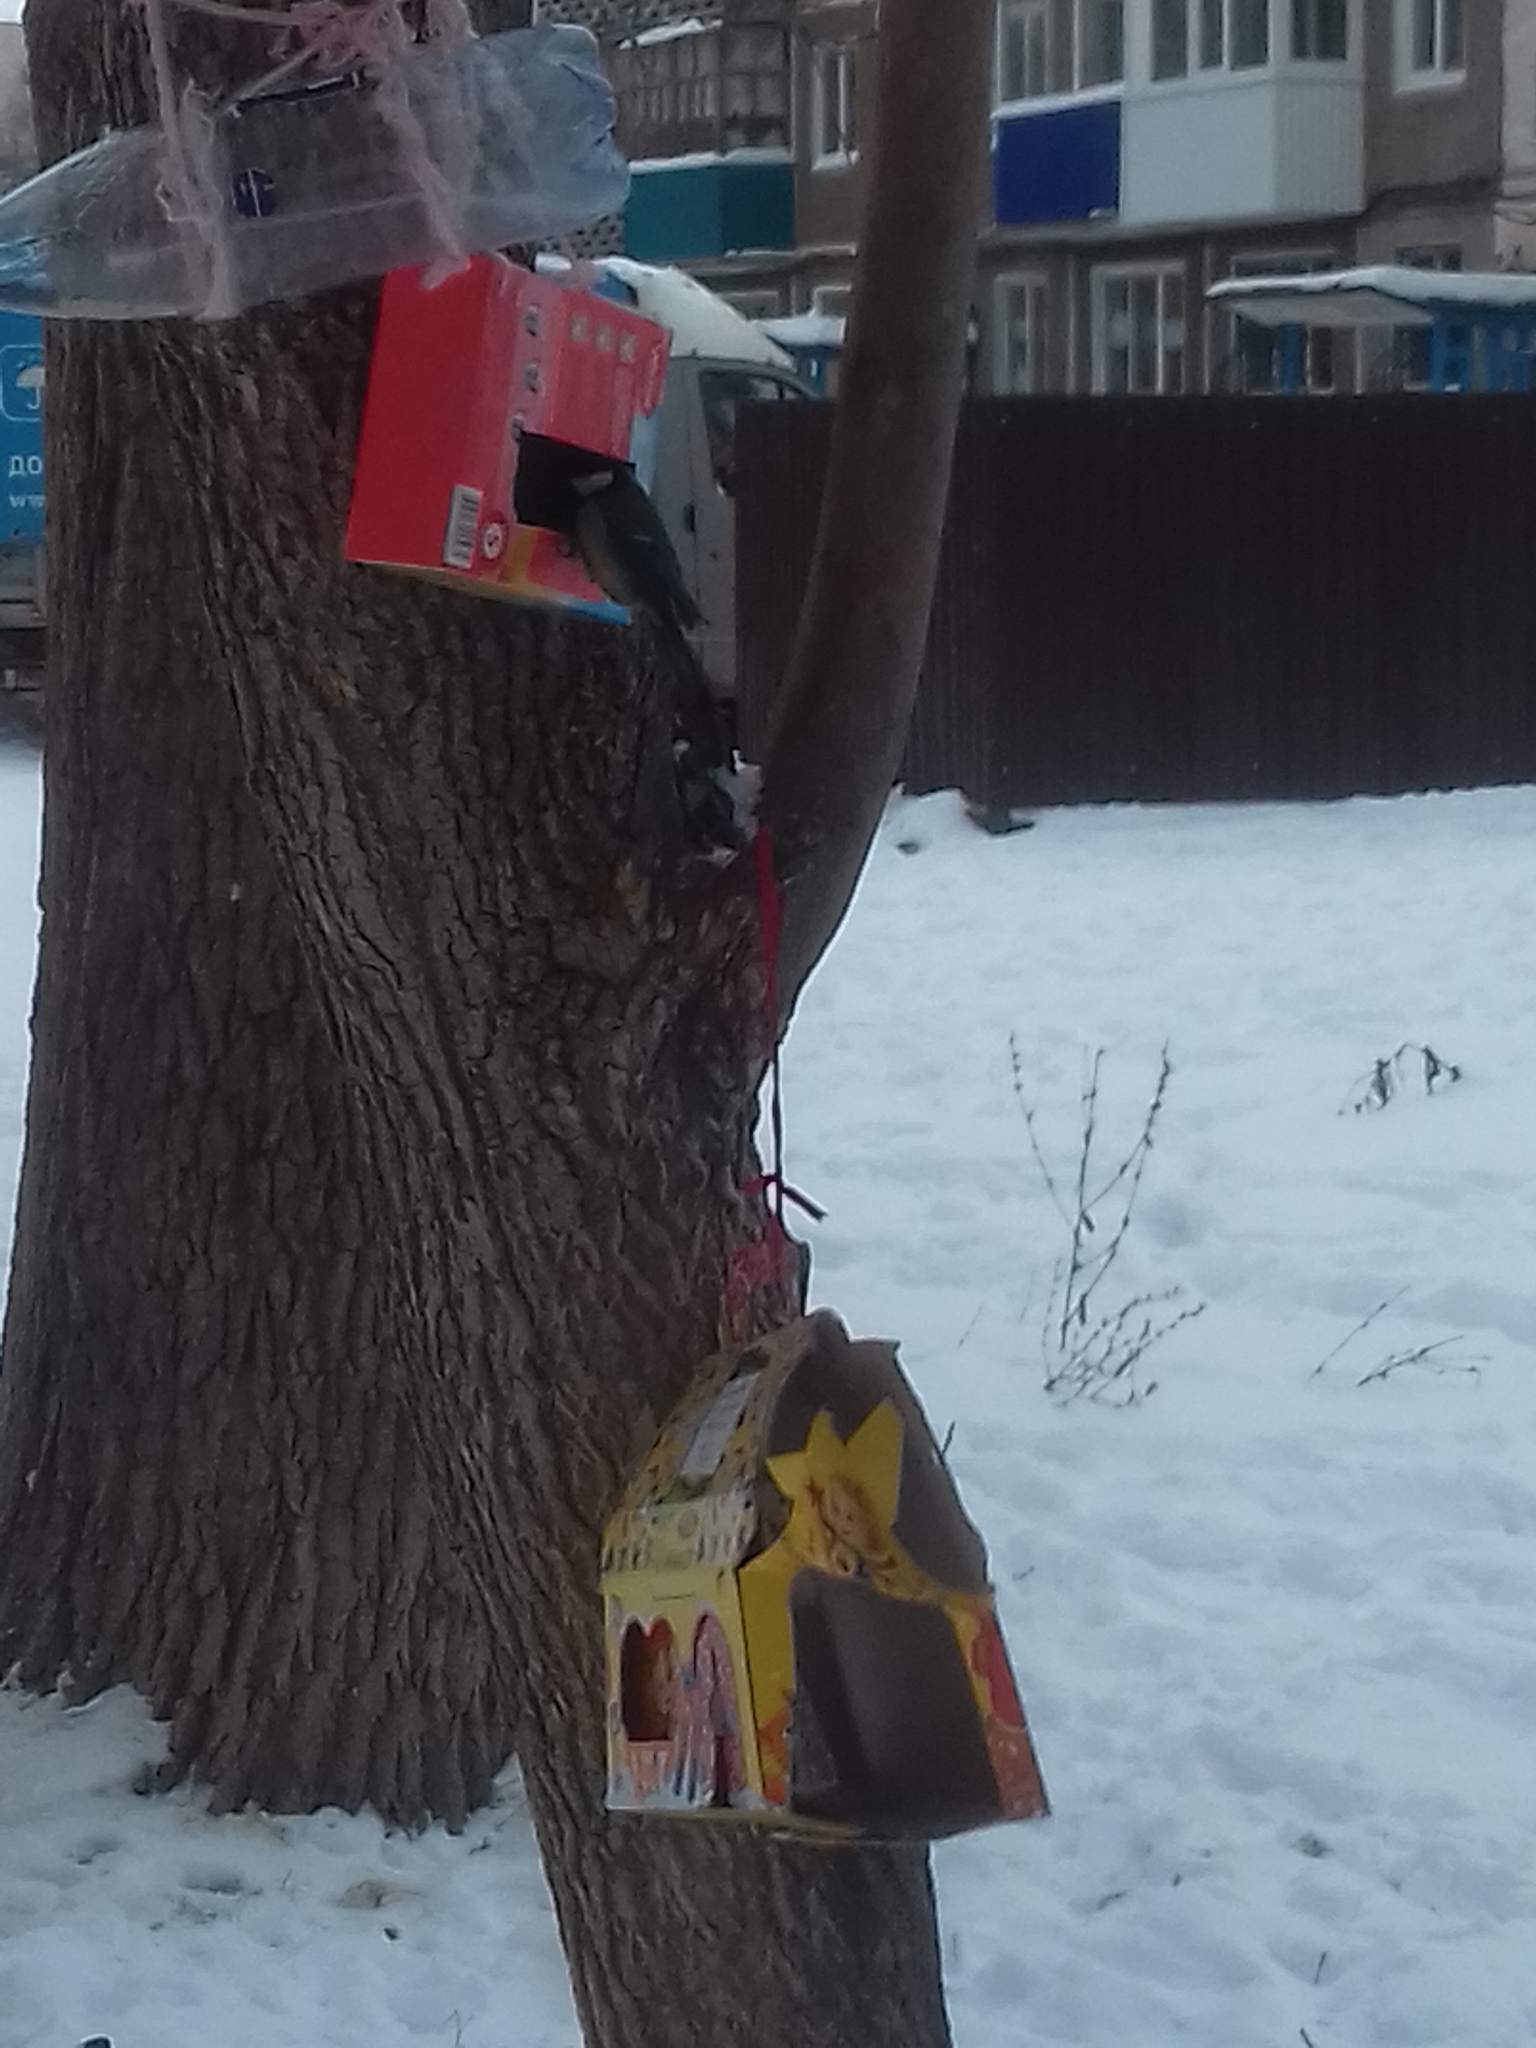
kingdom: Animalia
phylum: Chordata
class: Aves
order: Passeriformes
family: Paridae
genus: Parus
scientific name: Parus major
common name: Great tit
